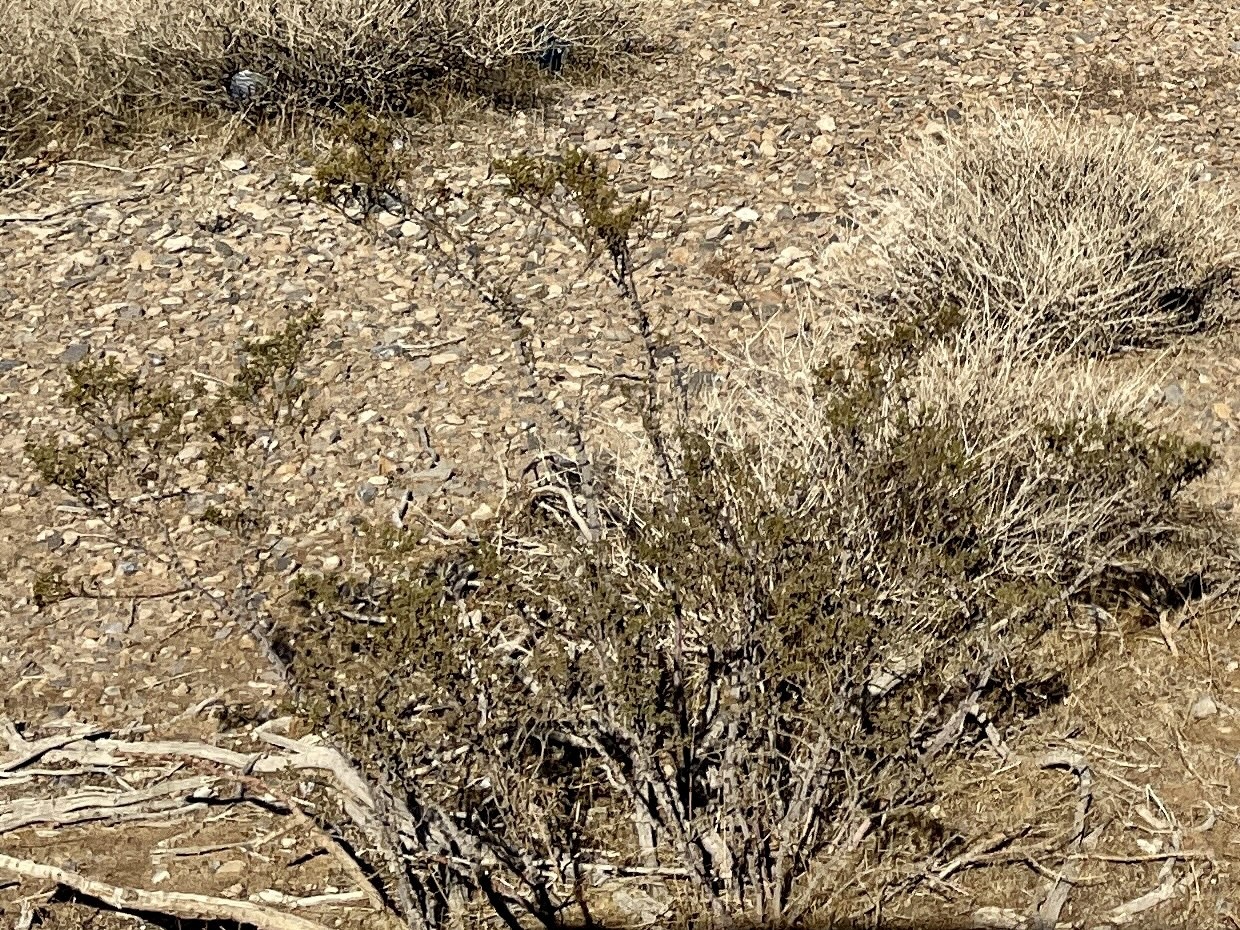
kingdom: Plantae
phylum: Tracheophyta
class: Magnoliopsida
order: Zygophyllales
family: Zygophyllaceae
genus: Larrea
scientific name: Larrea tridentata
